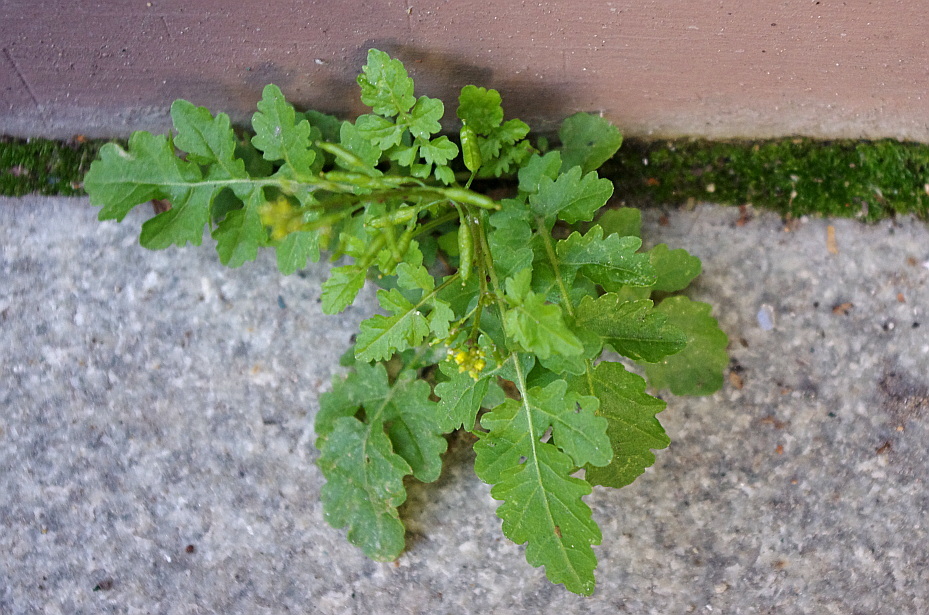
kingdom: Plantae
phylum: Tracheophyta
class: Magnoliopsida
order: Brassicales
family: Brassicaceae
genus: Rorippa
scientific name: Rorippa palustris
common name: Marsh yellow-cress
